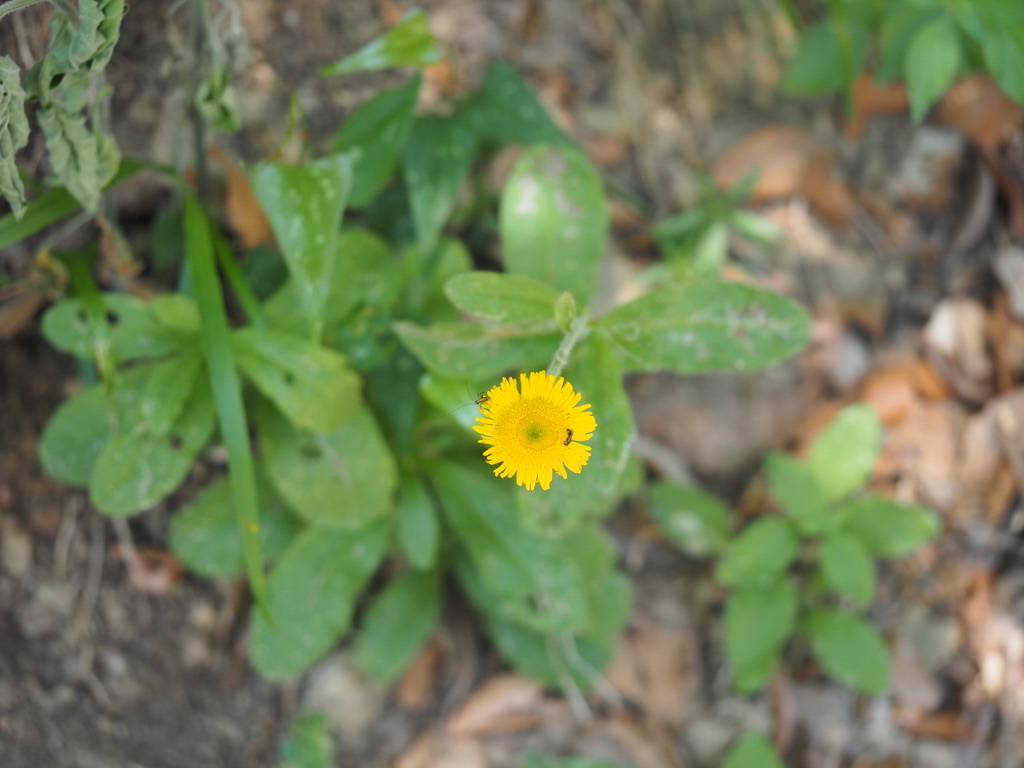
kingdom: Plantae
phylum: Tracheophyta
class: Magnoliopsida
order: Asterales
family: Asteraceae
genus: Pulicaria
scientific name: Pulicaria dysenterica
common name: Common fleabane
